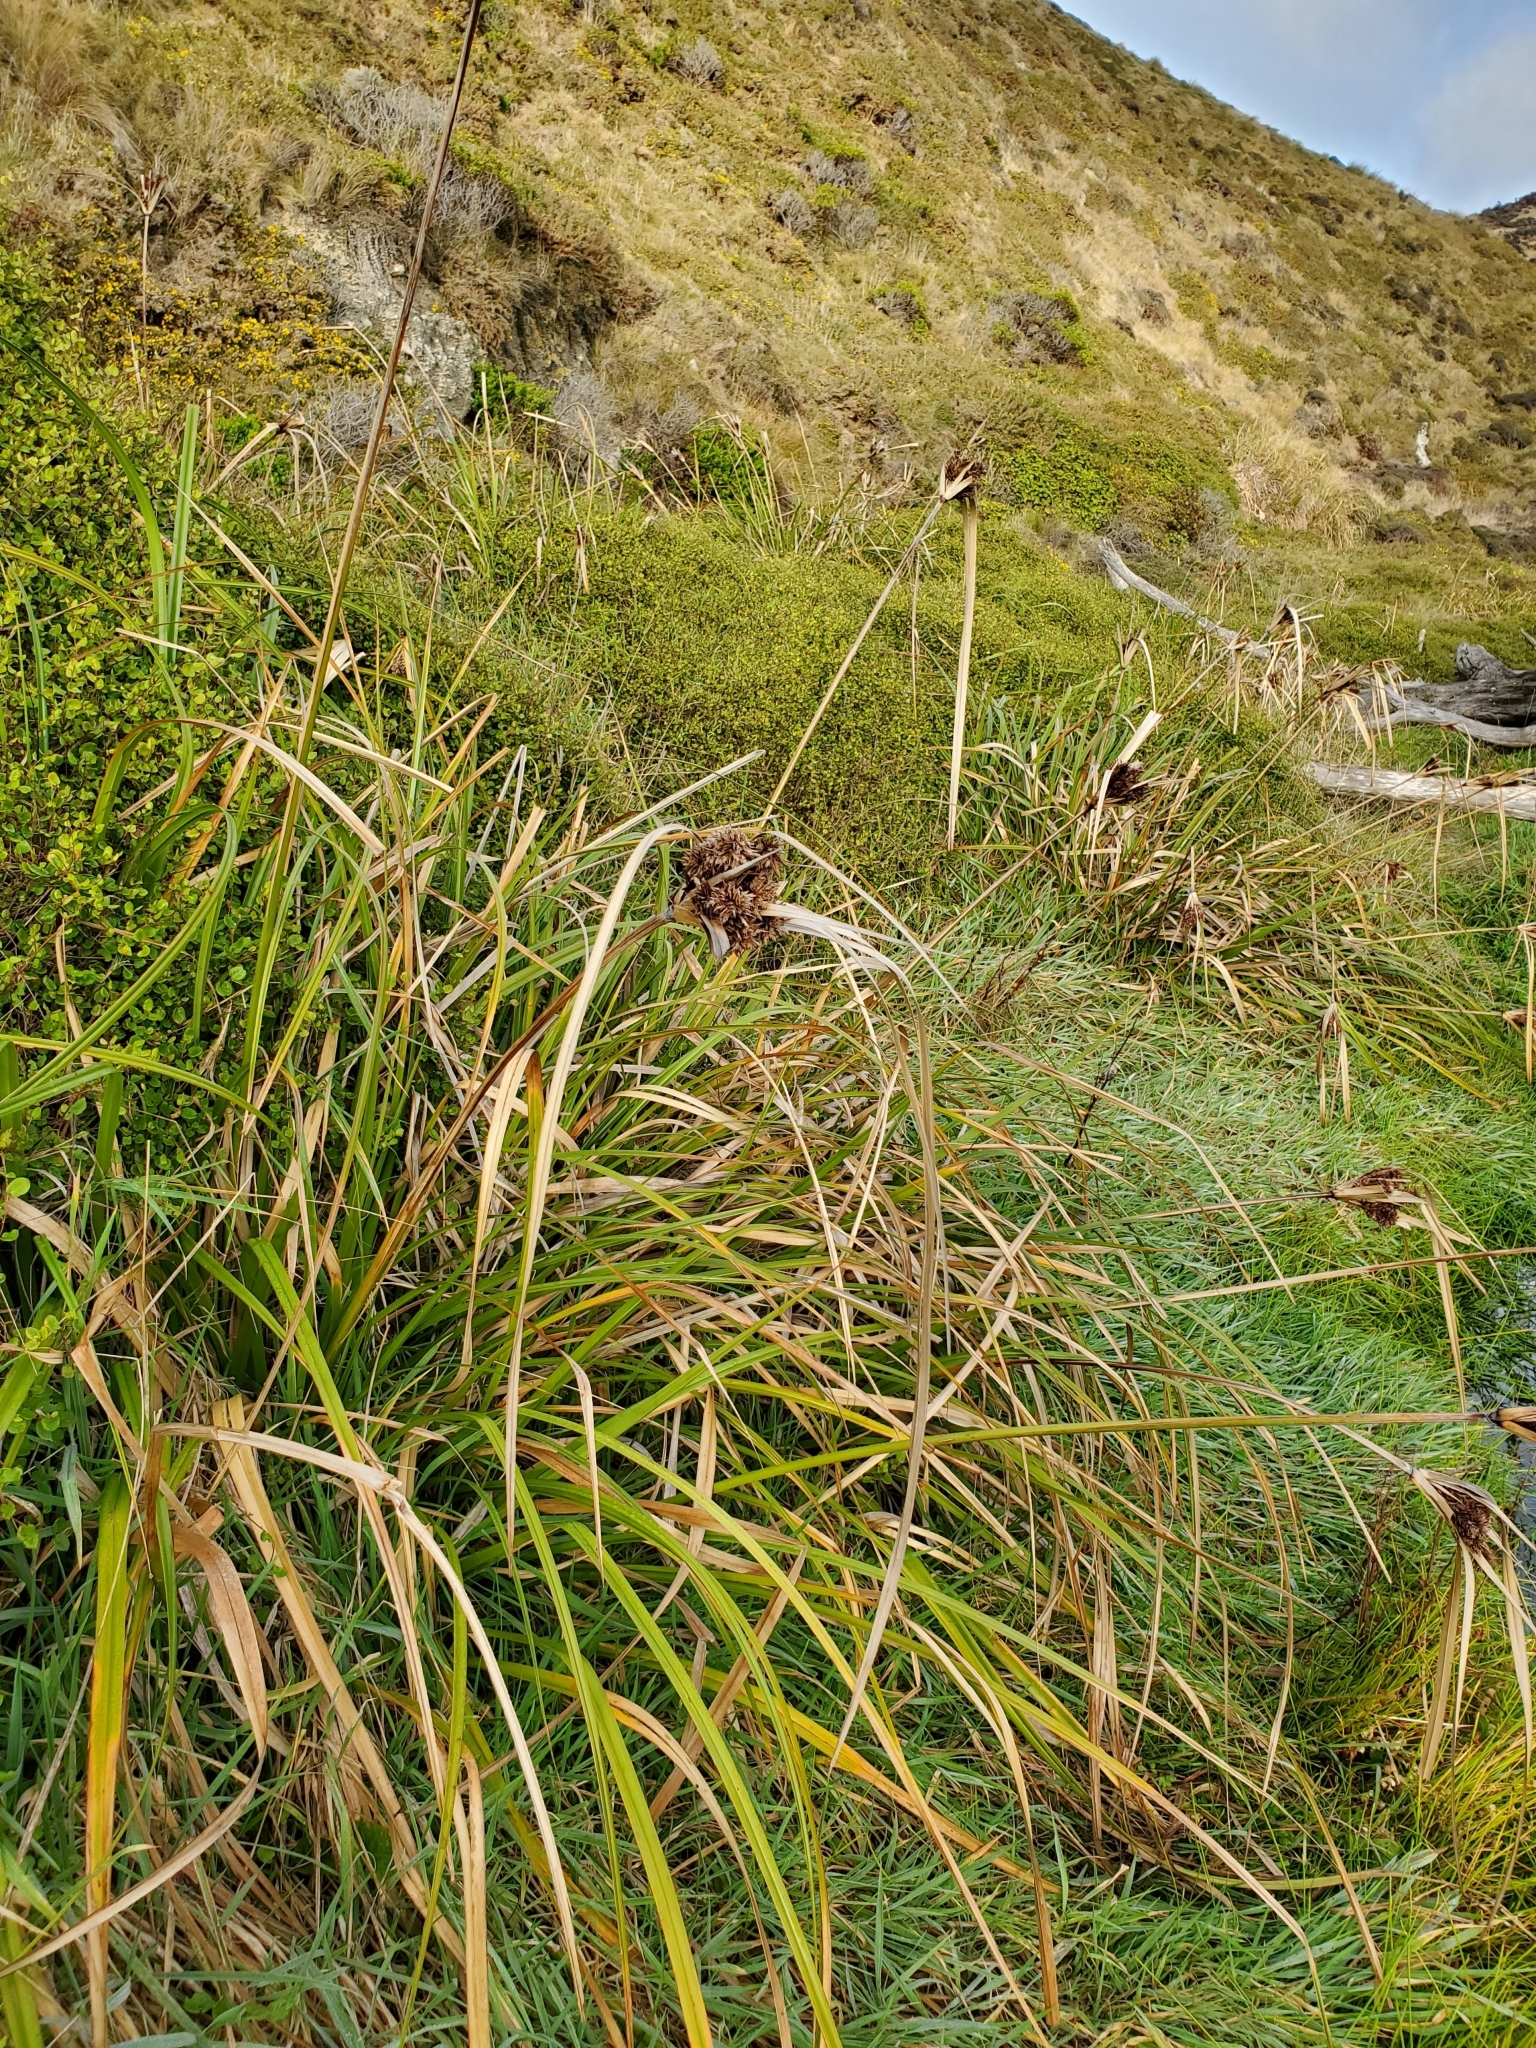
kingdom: Plantae
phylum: Tracheophyta
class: Liliopsida
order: Poales
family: Cyperaceae
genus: Cyperus
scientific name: Cyperus ustulatus
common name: Giant umbrella-sedge
